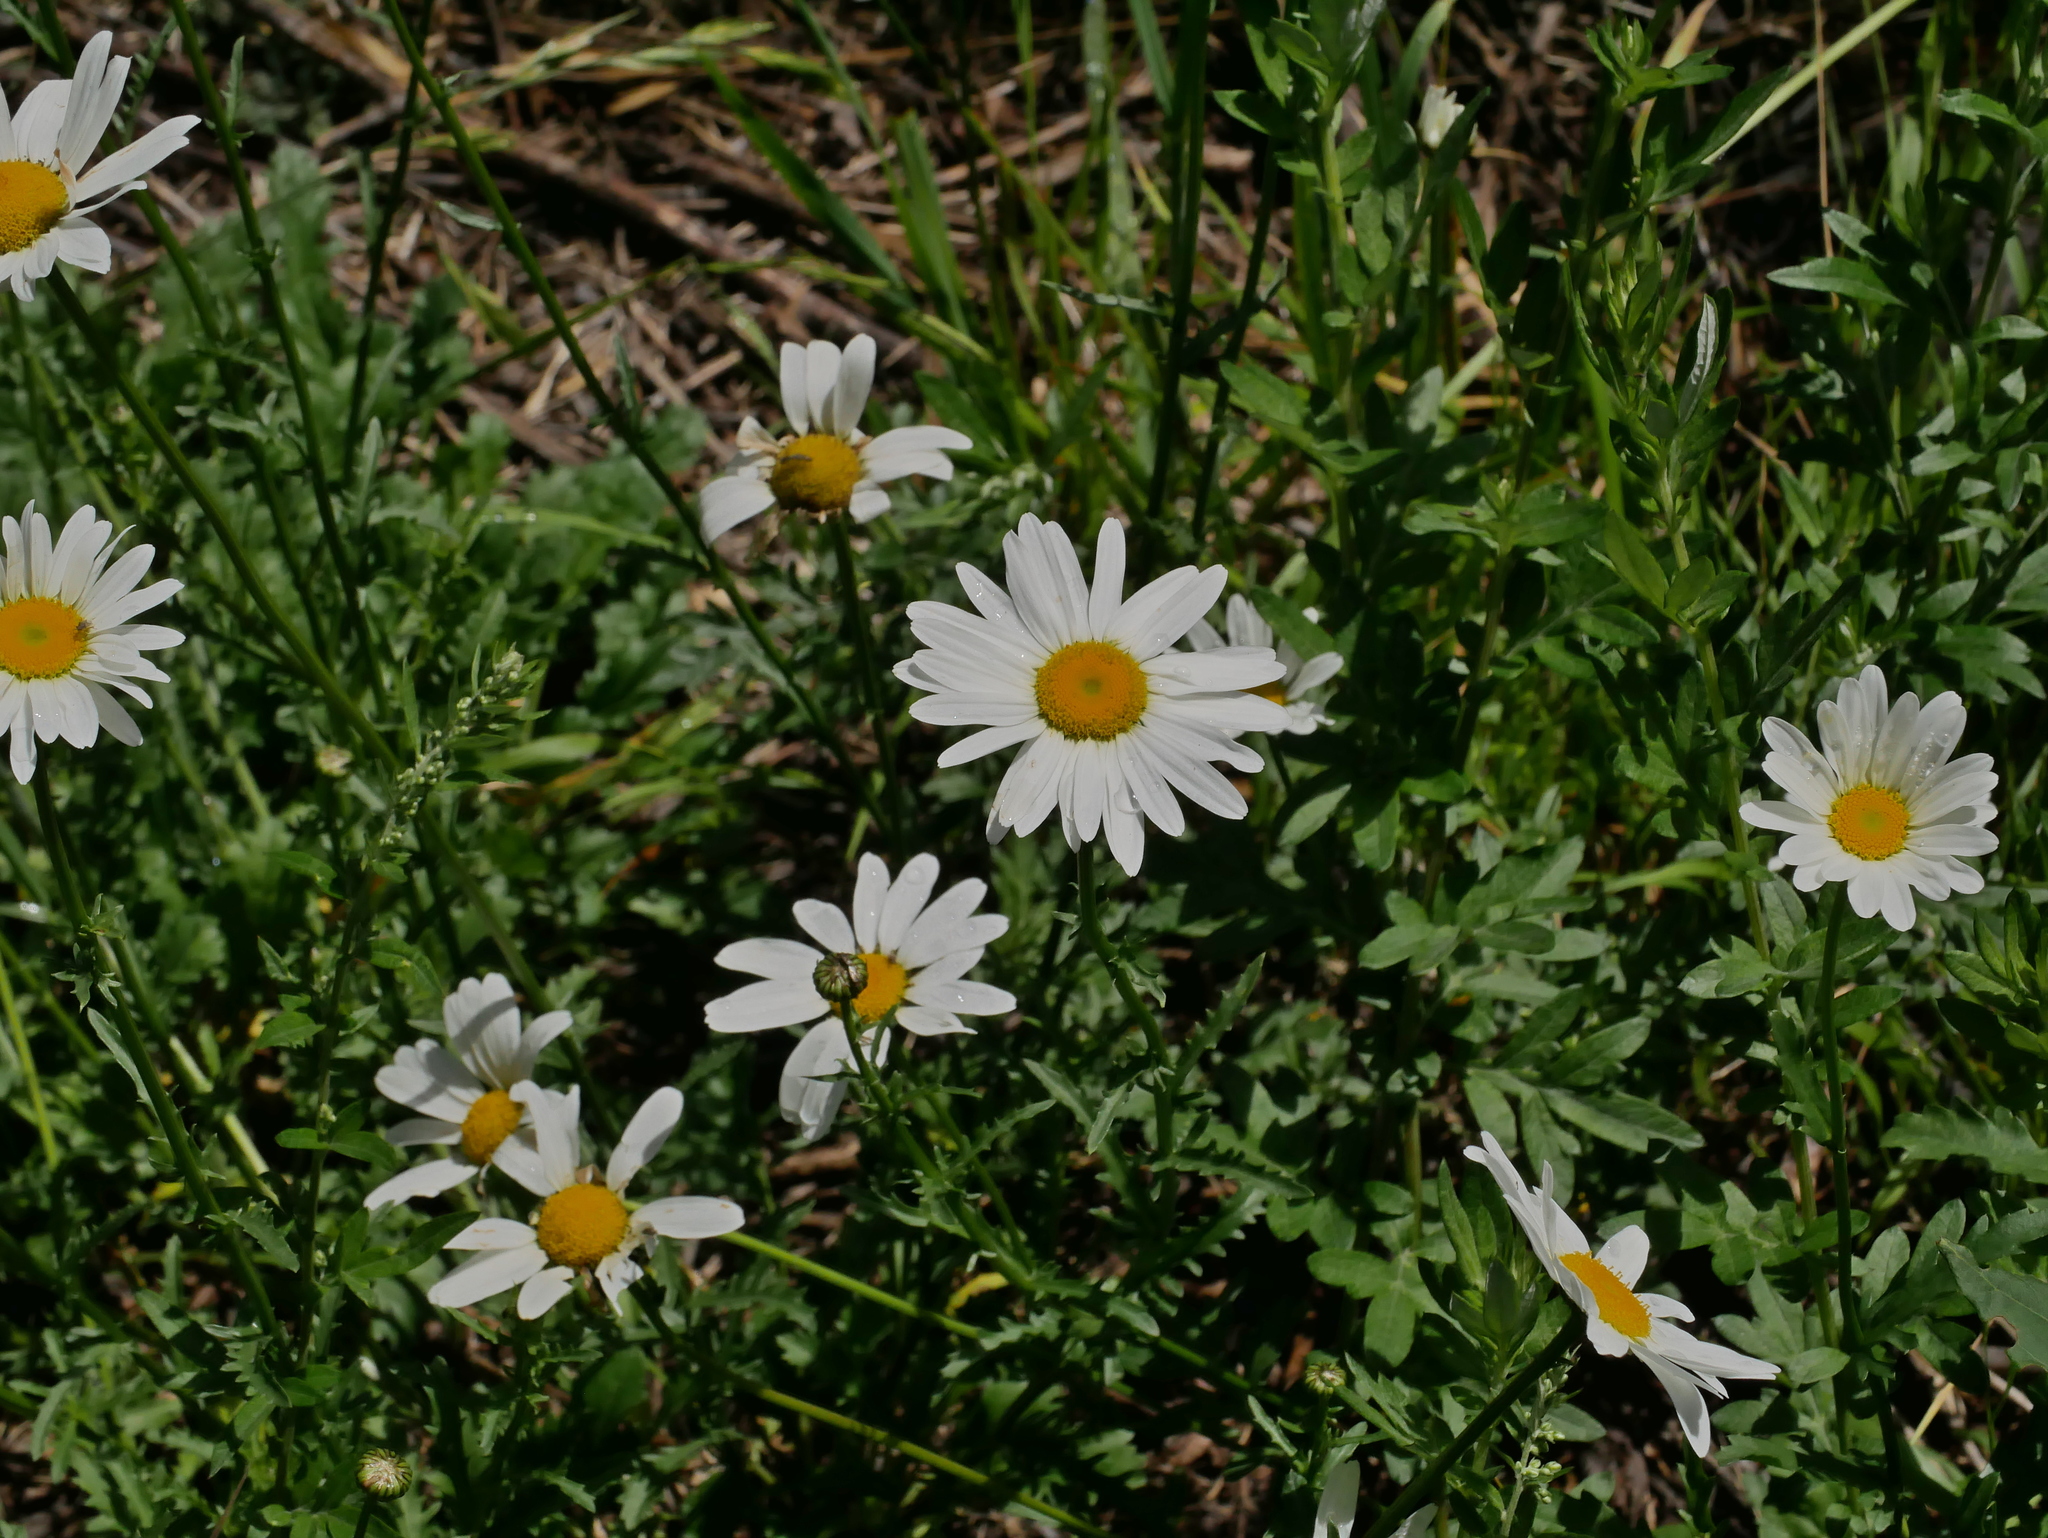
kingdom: Plantae
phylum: Tracheophyta
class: Magnoliopsida
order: Asterales
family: Asteraceae
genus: Leucanthemum
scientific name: Leucanthemum vulgare
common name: Oxeye daisy
